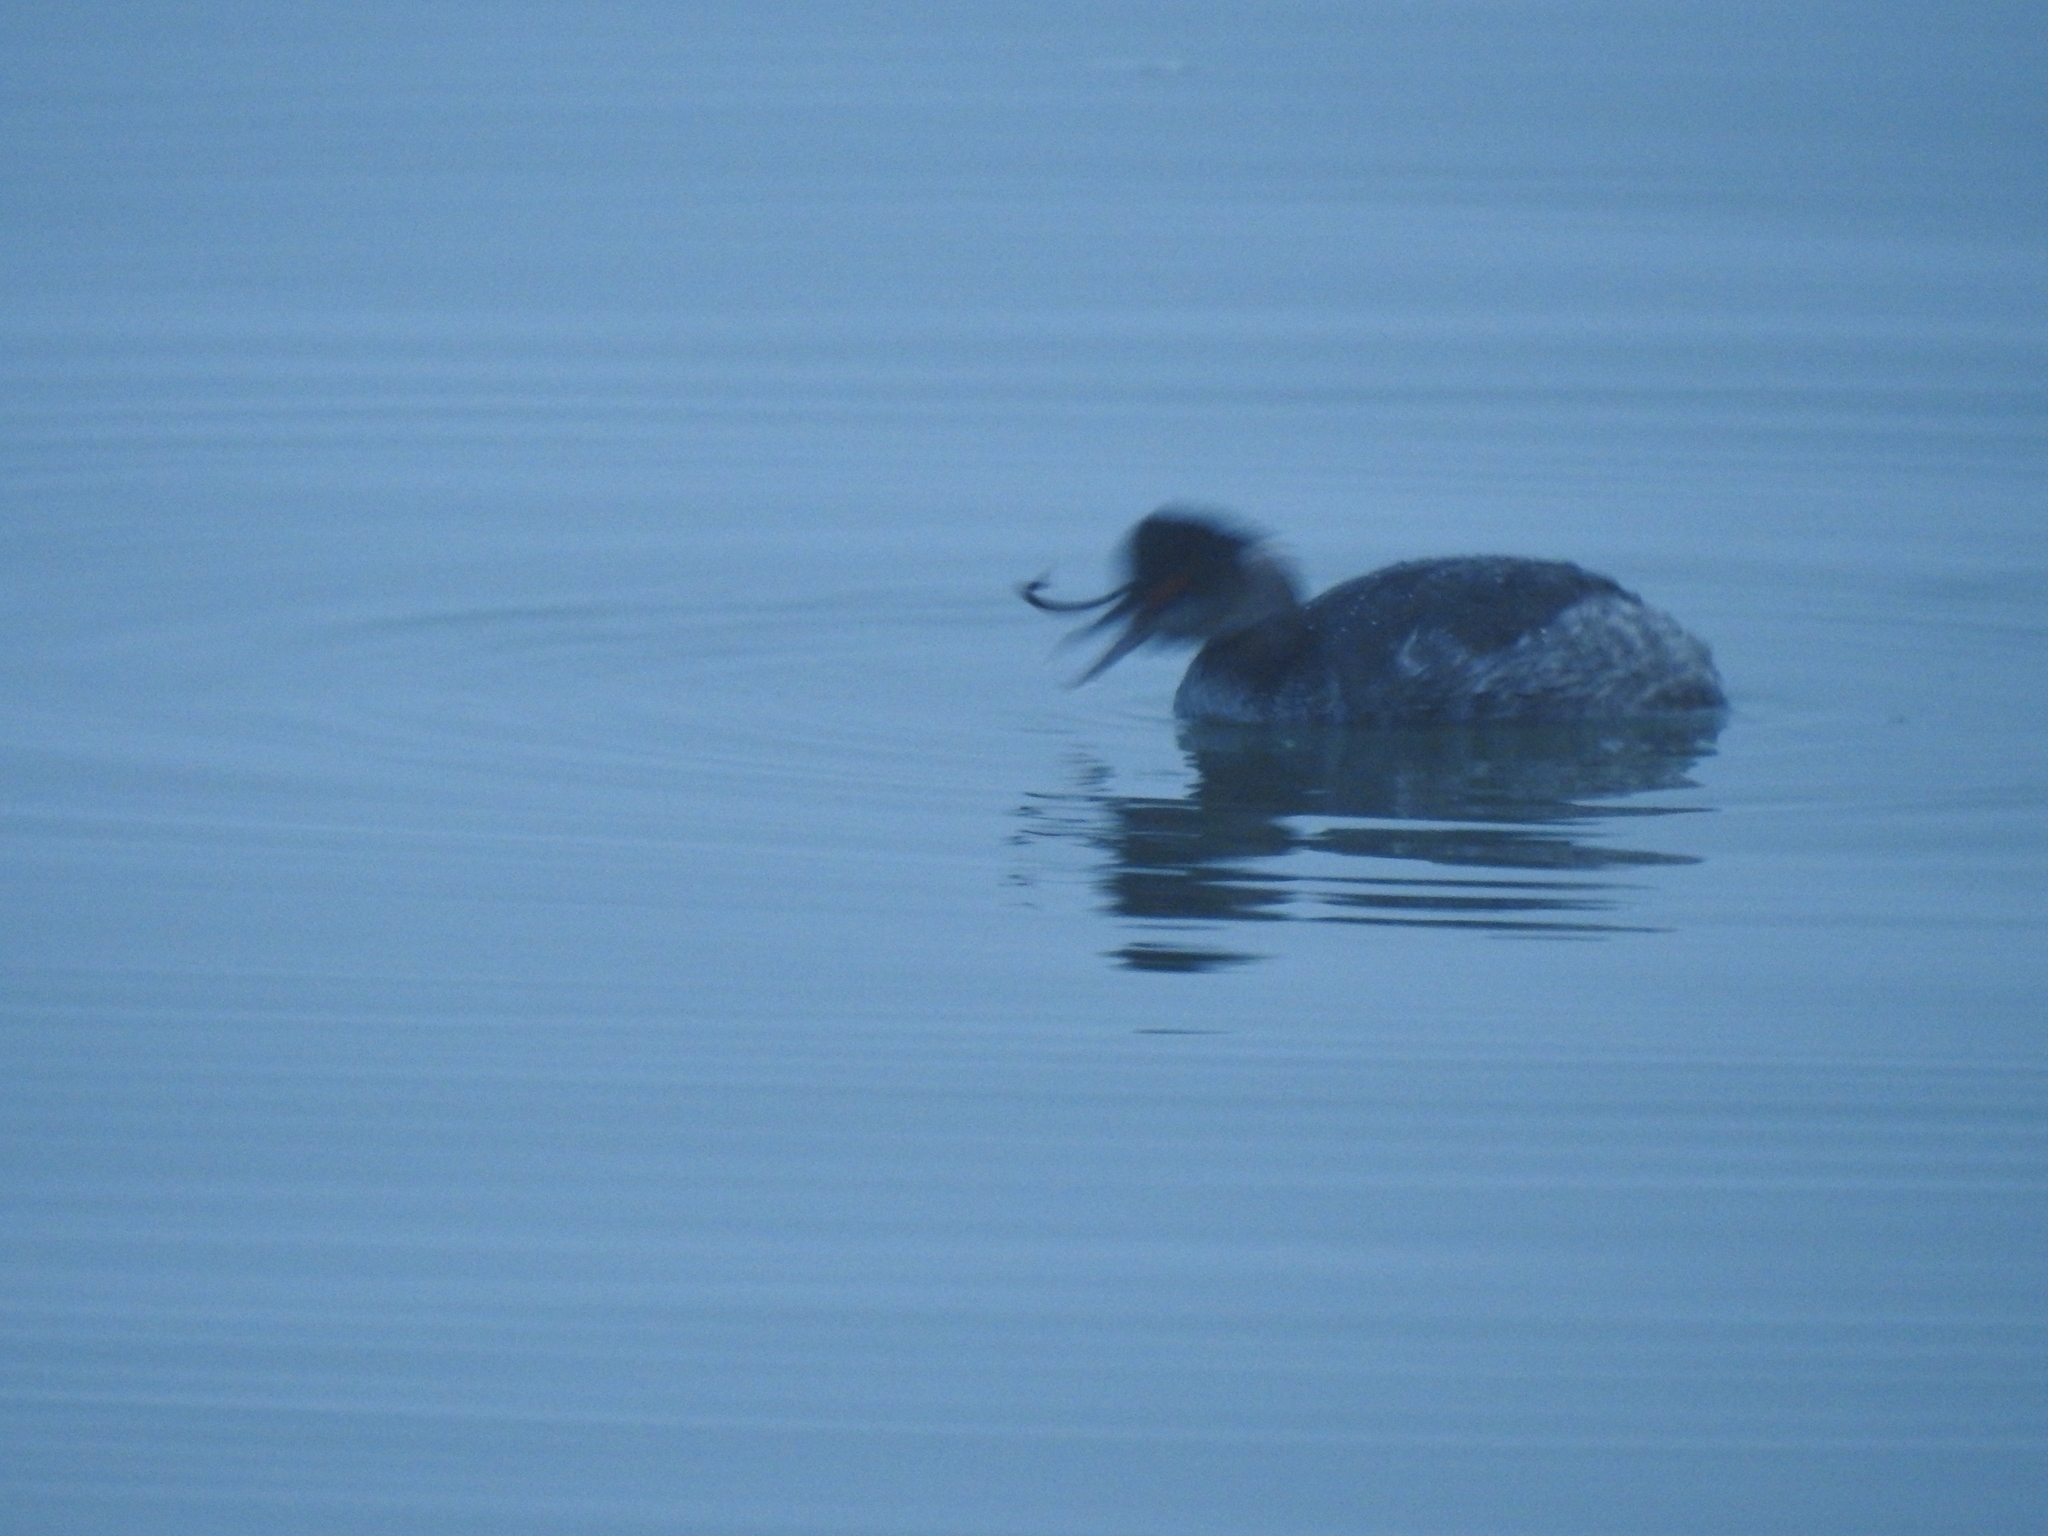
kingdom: Animalia
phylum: Chordata
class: Aves
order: Podicipediformes
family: Podicipedidae
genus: Podiceps
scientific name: Podiceps nigricollis
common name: Black-necked grebe
